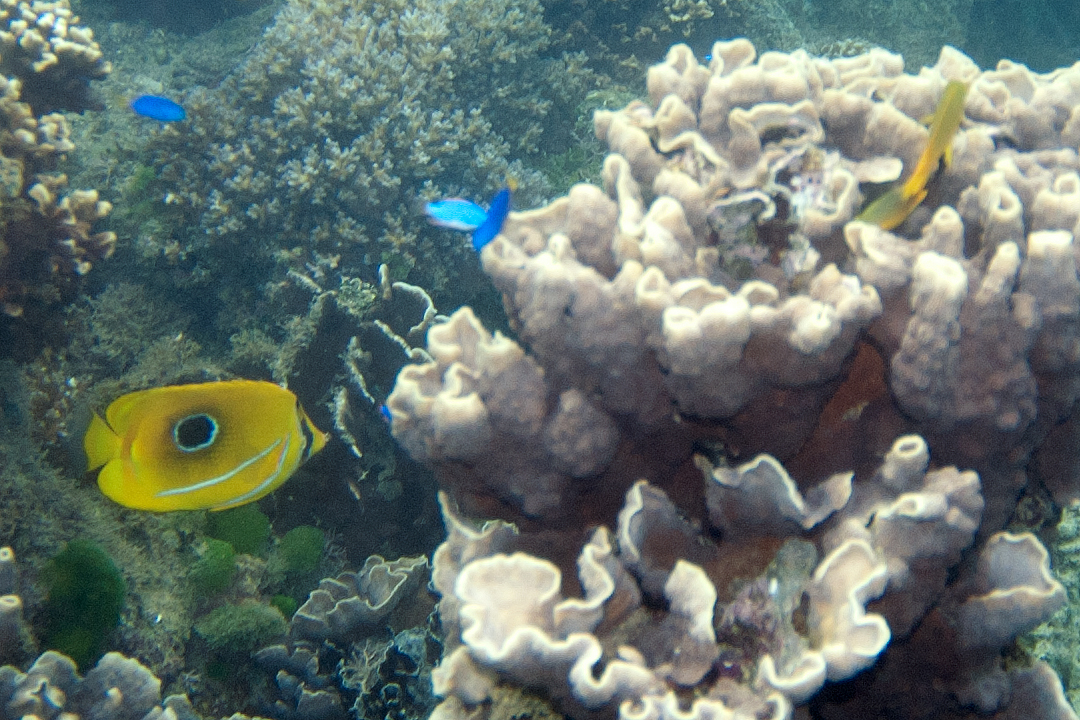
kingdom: Animalia
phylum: Chordata
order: Perciformes
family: Chaetodontidae
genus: Chaetodon
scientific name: Chaetodon bennetti
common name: Bennett's butterflyfish
